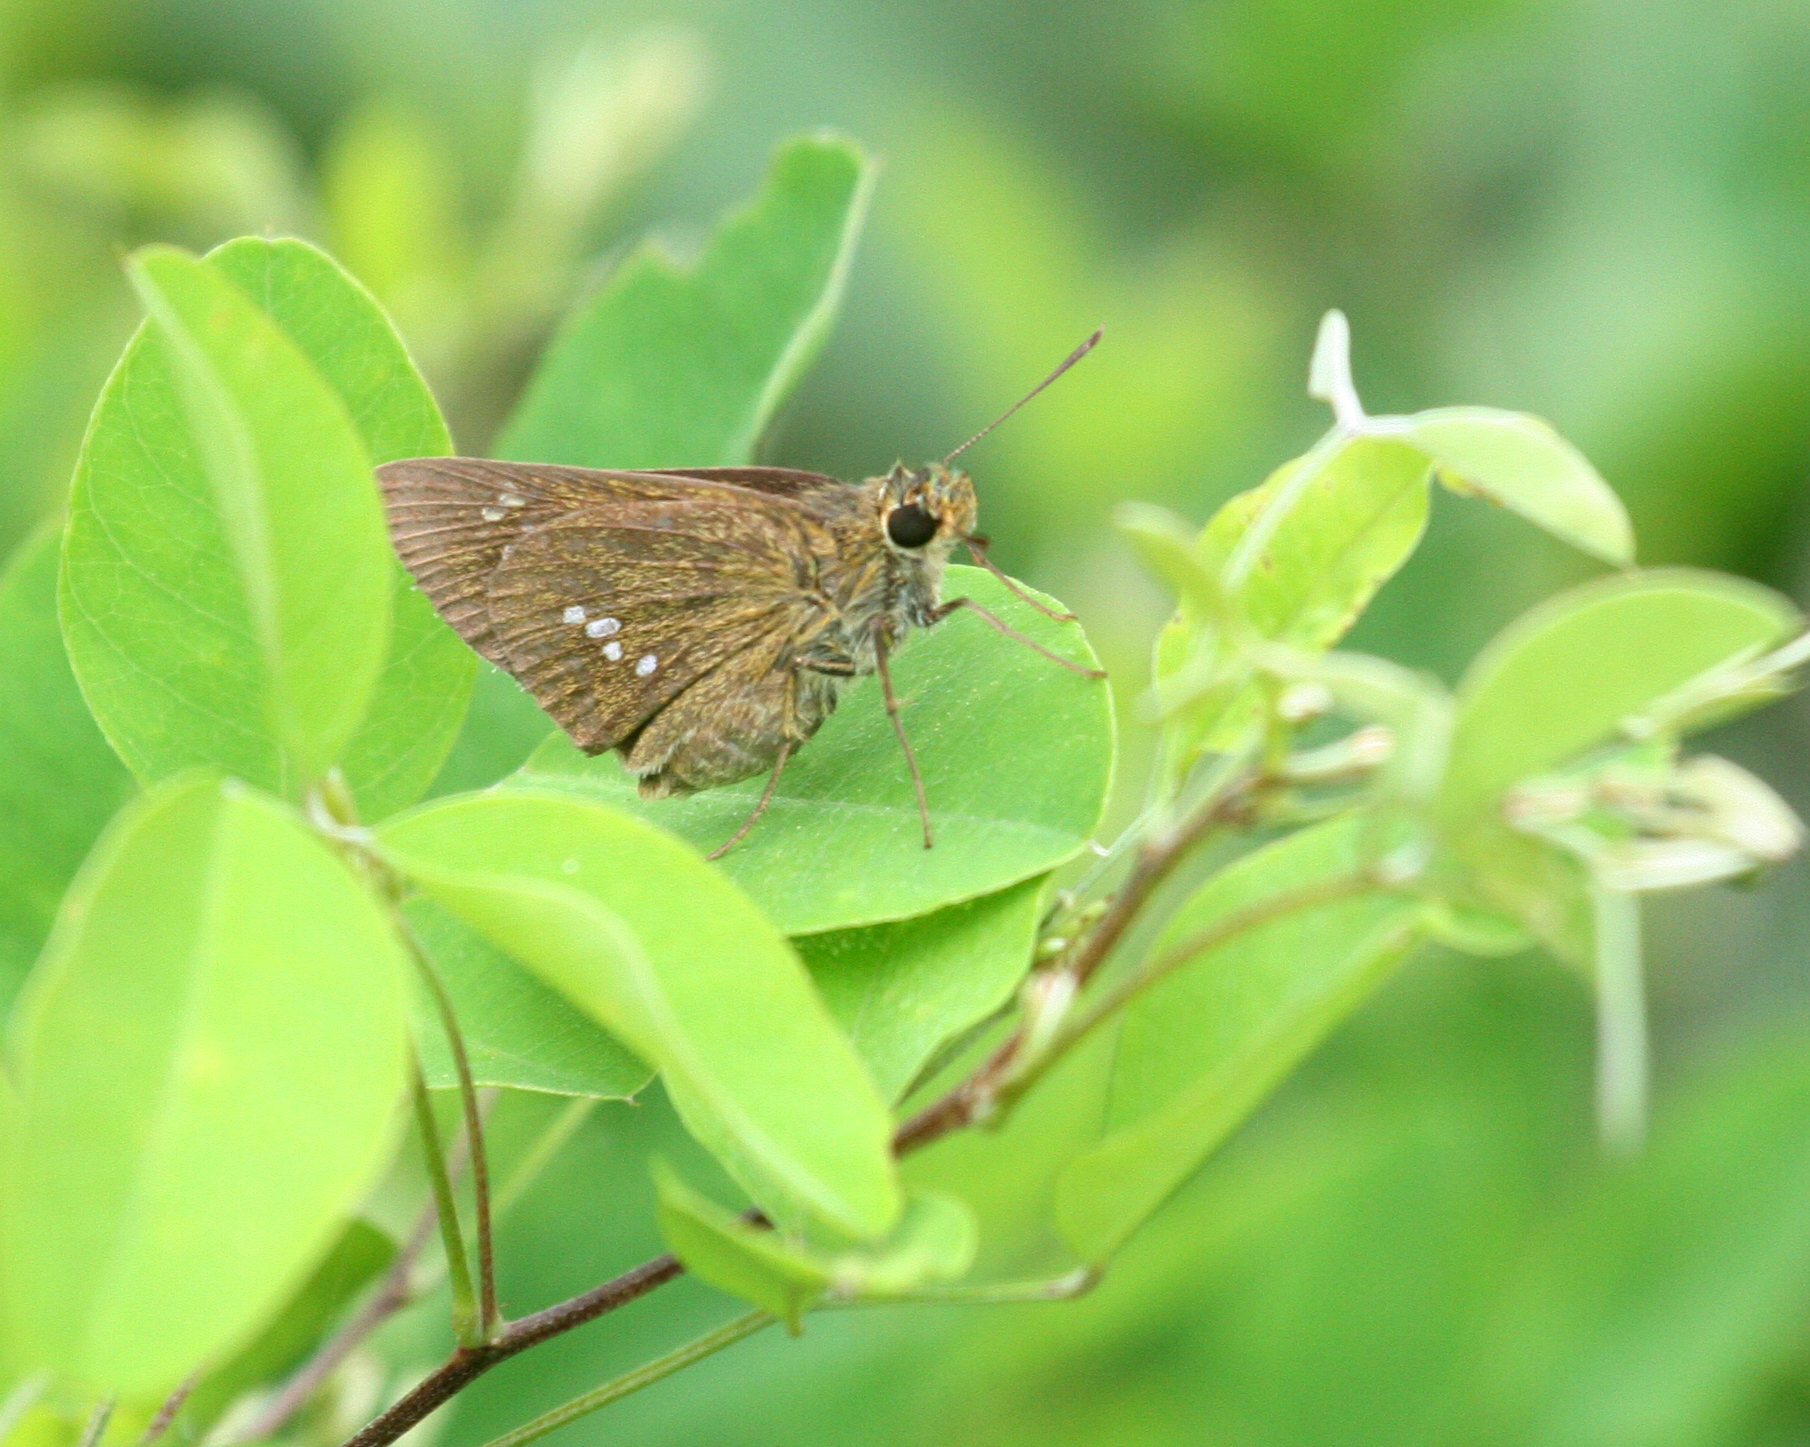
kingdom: Animalia
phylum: Arthropoda
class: Insecta
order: Lepidoptera
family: Hesperiidae
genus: Polytremis
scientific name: Polytremis zina
